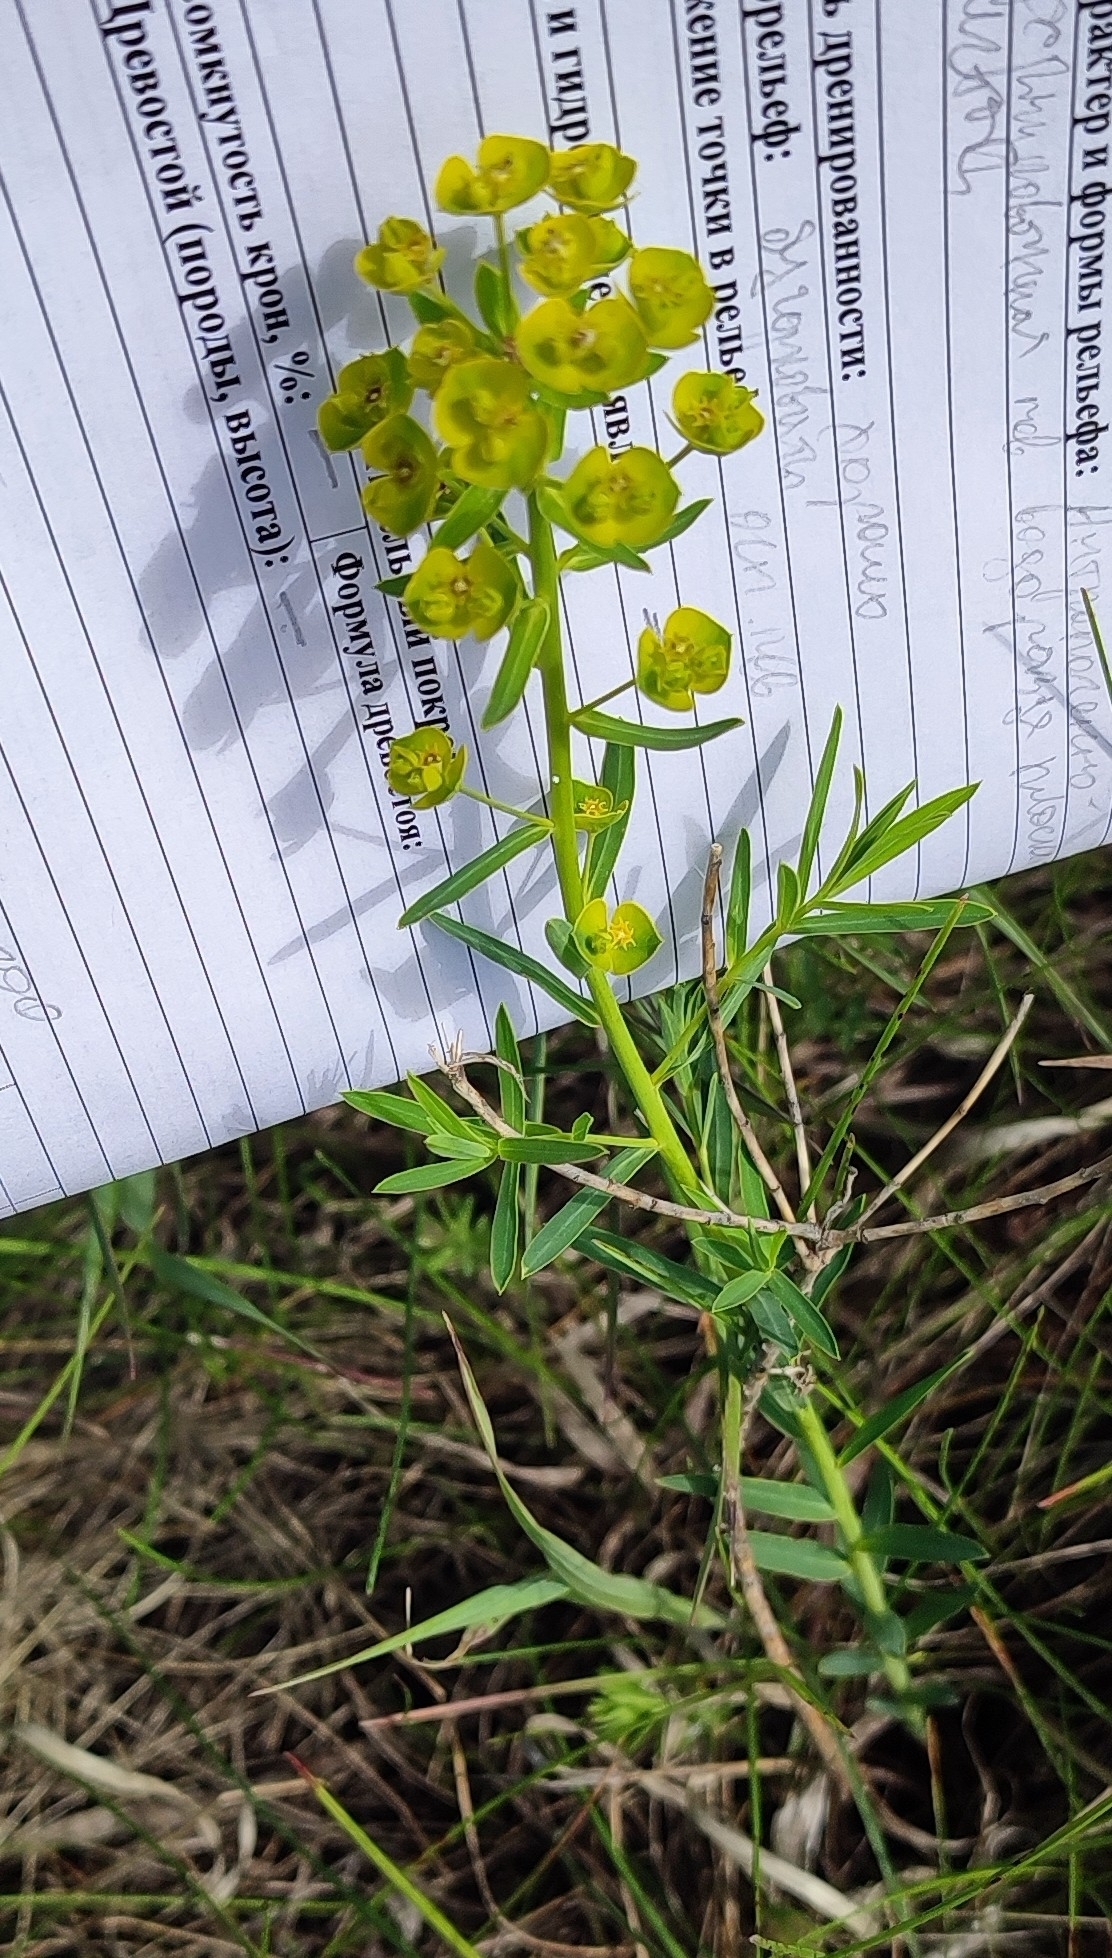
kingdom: Plantae
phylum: Tracheophyta
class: Magnoliopsida
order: Malpighiales
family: Euphorbiaceae
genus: Euphorbia
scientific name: Euphorbia virgata
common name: Leafy spurge
